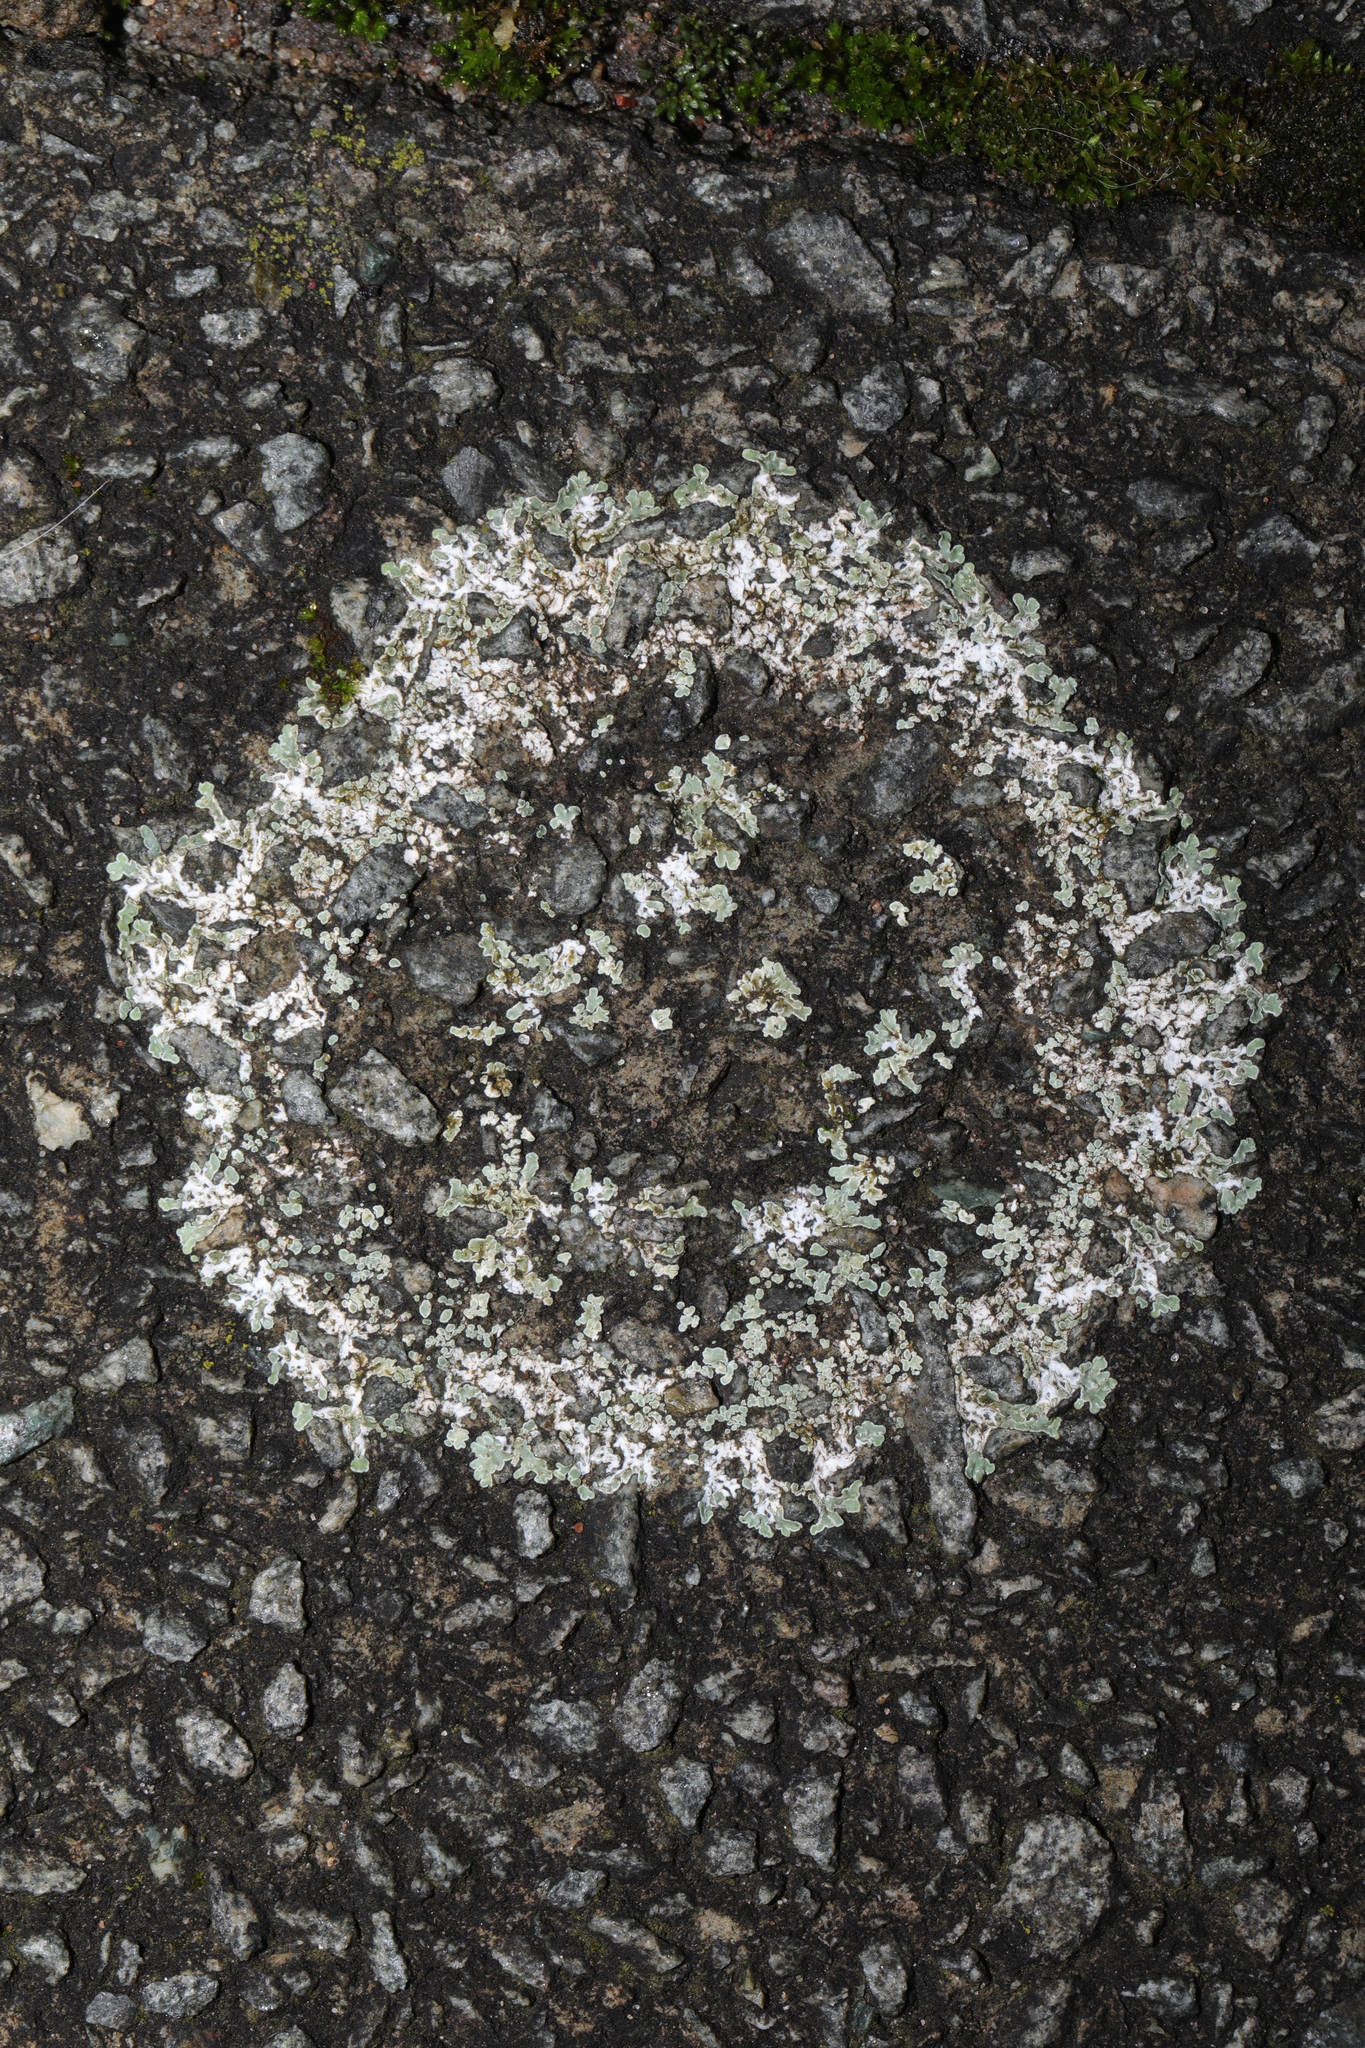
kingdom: Fungi
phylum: Ascomycota
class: Lecanoromycetes
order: Lecanorales
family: Lecanoraceae
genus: Protoparmeliopsis
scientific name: Protoparmeliopsis muralis
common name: Stonewall rim lichen
